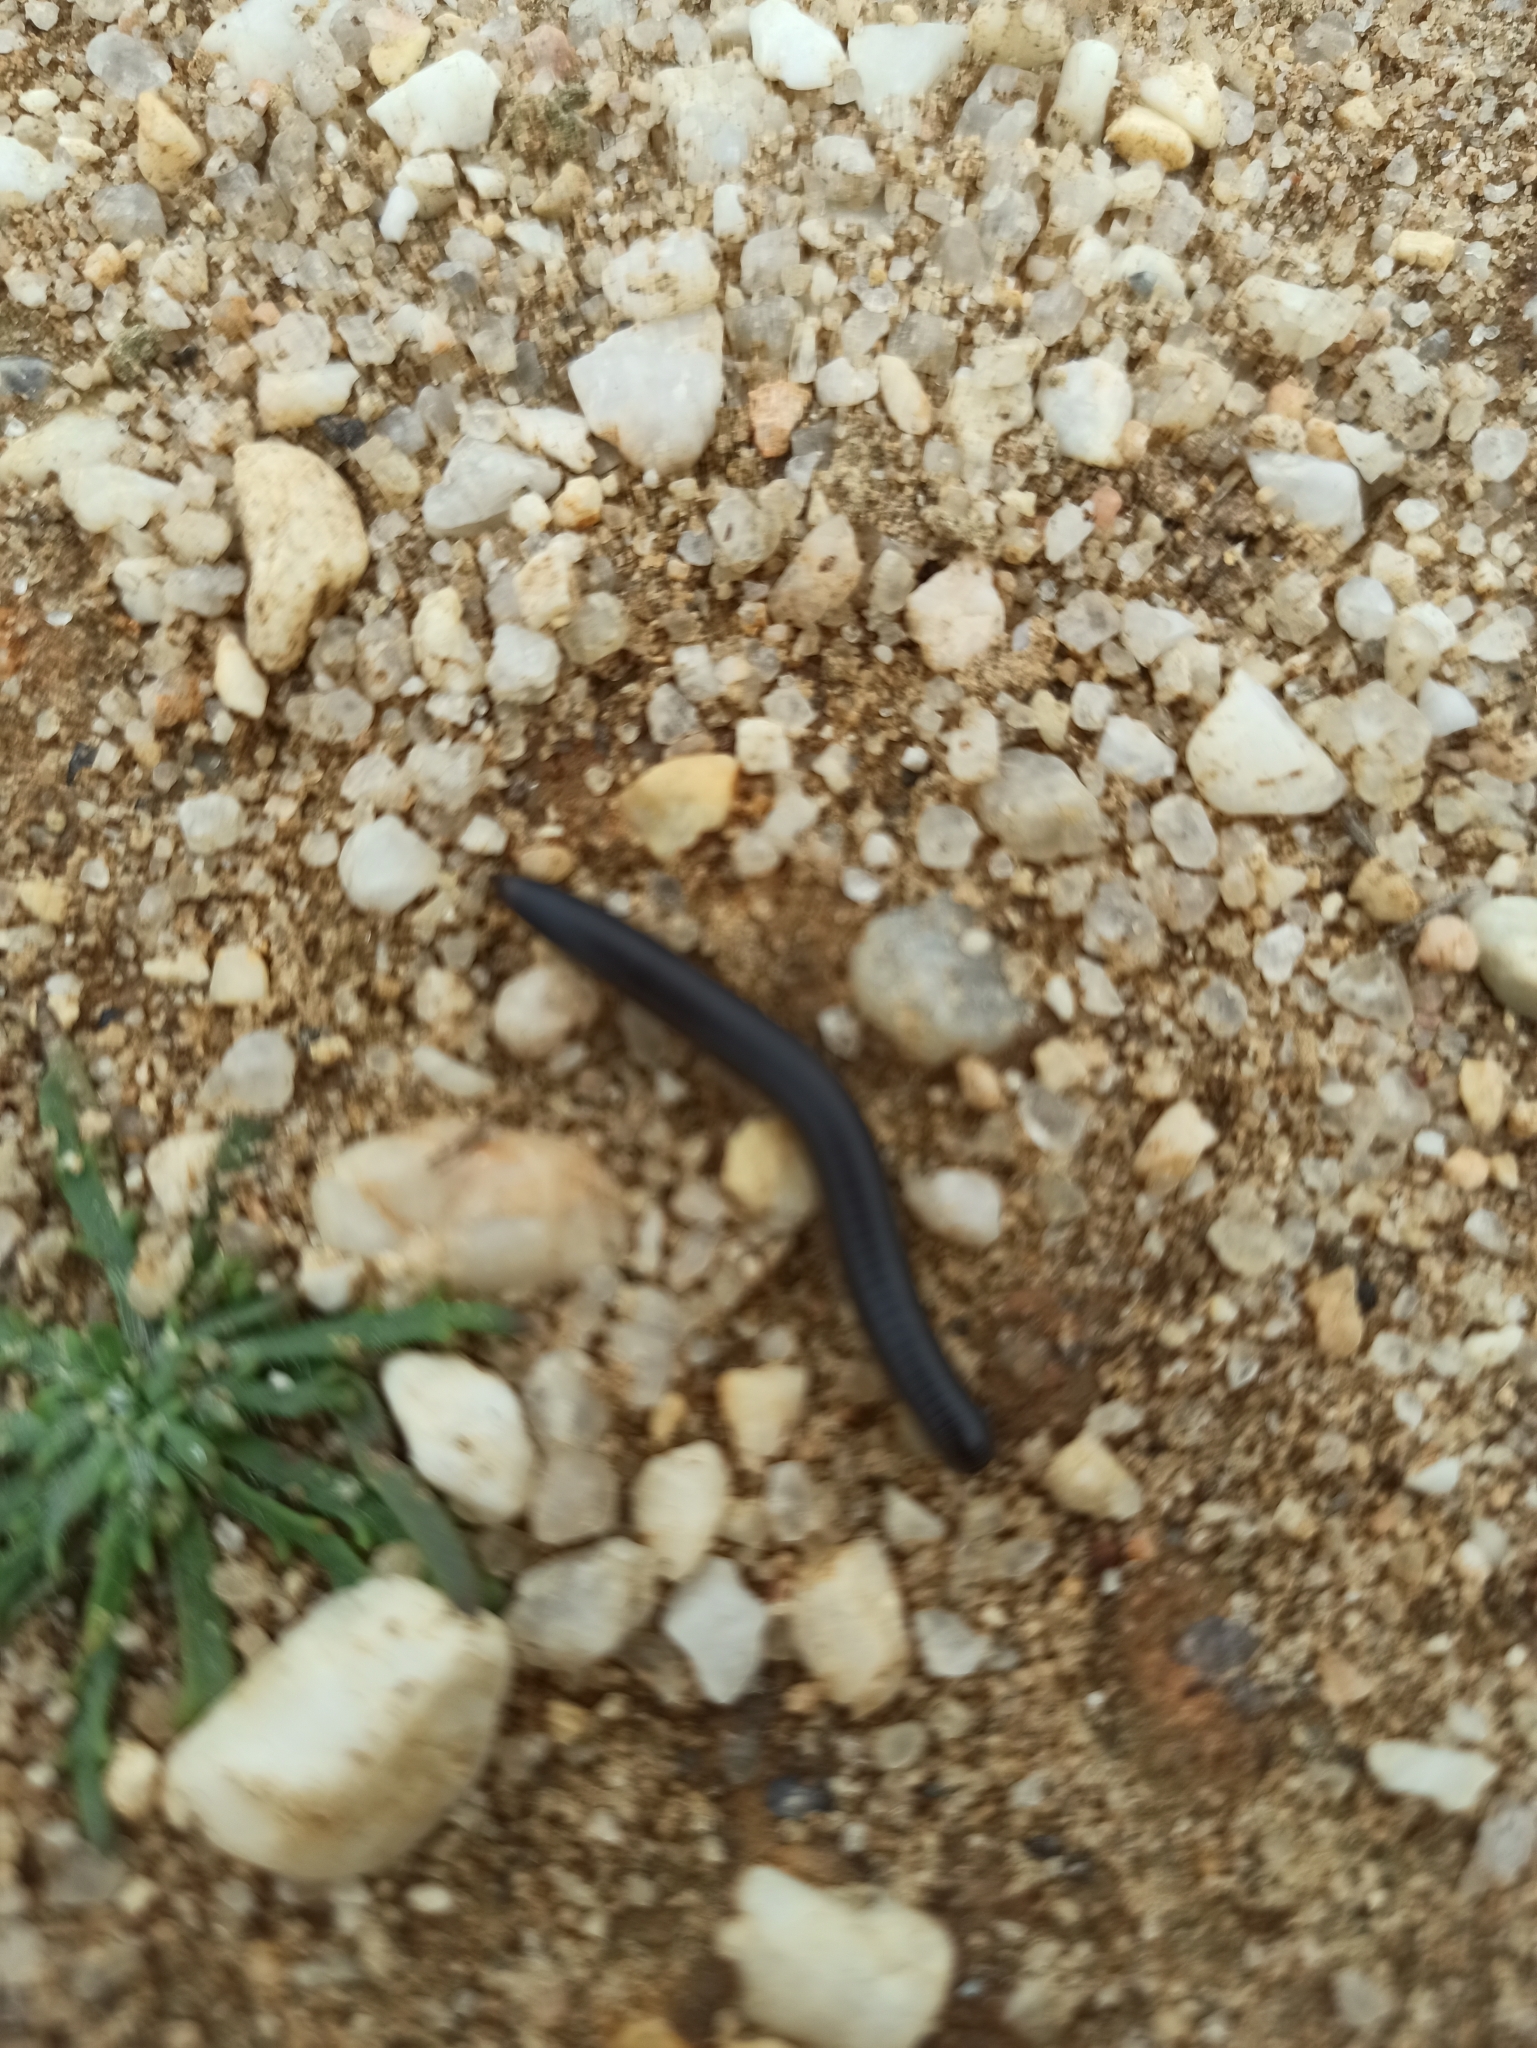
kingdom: Animalia
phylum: Arthropoda
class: Diplopoda
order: Julida
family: Julidae
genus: Ommatoiulus
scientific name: Ommatoiulus moreleti
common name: Portuguese millipede
